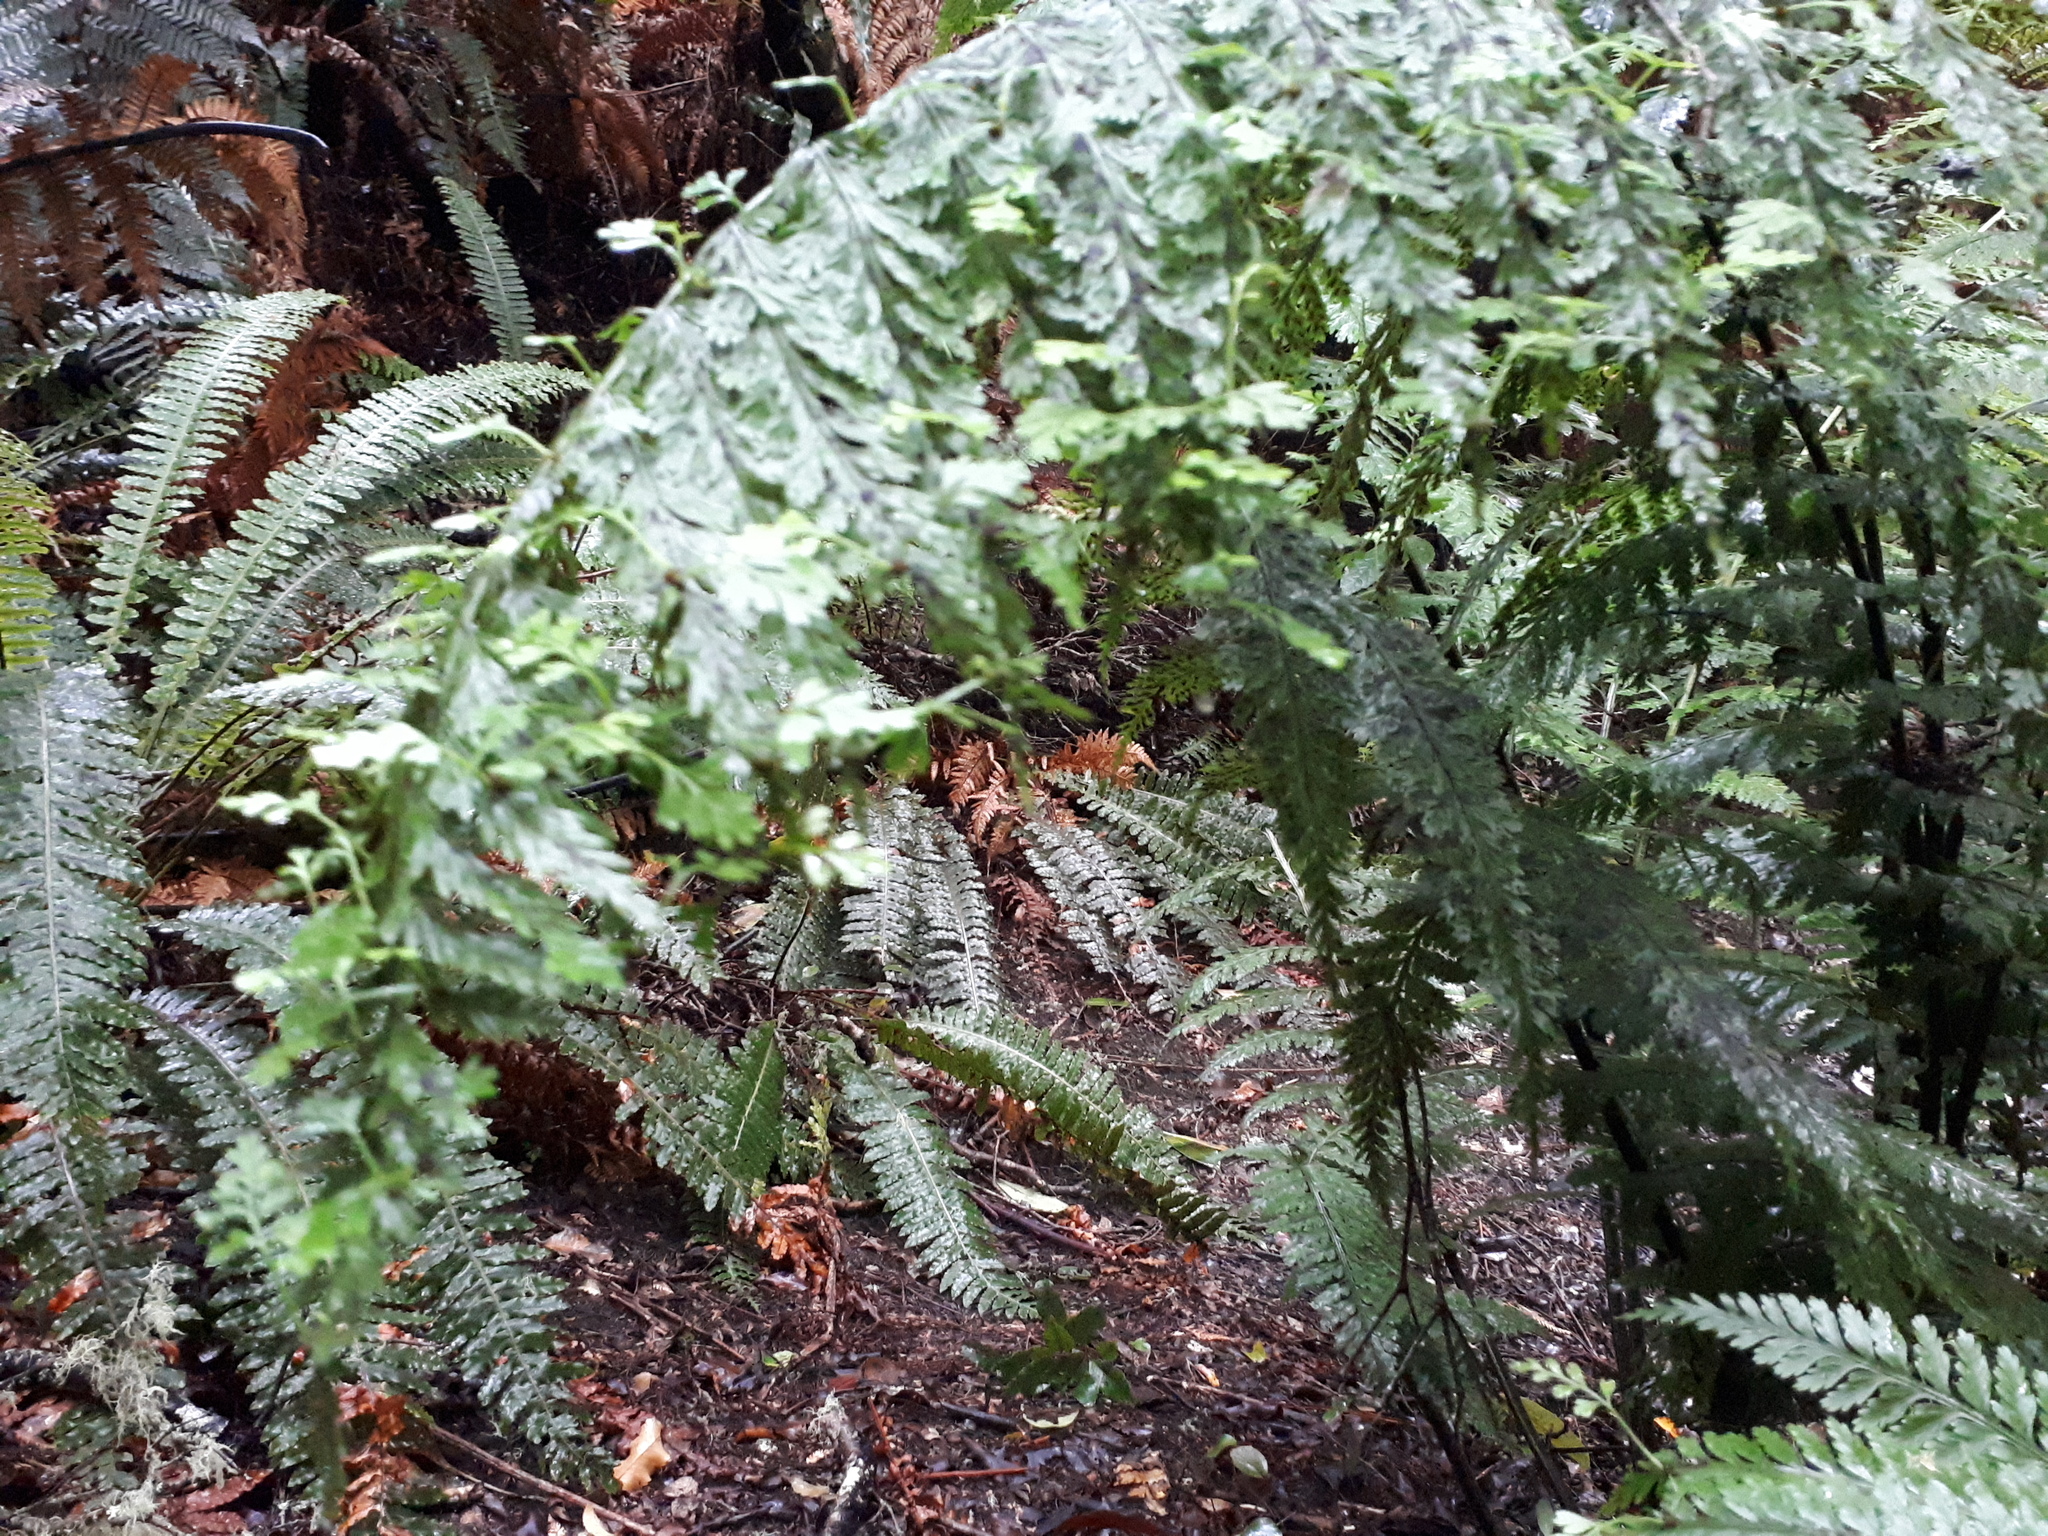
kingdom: Plantae
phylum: Tracheophyta
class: Polypodiopsida
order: Polypodiales
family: Aspleniaceae
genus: Asplenium
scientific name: Asplenium bulbiferum
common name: Mother fern
